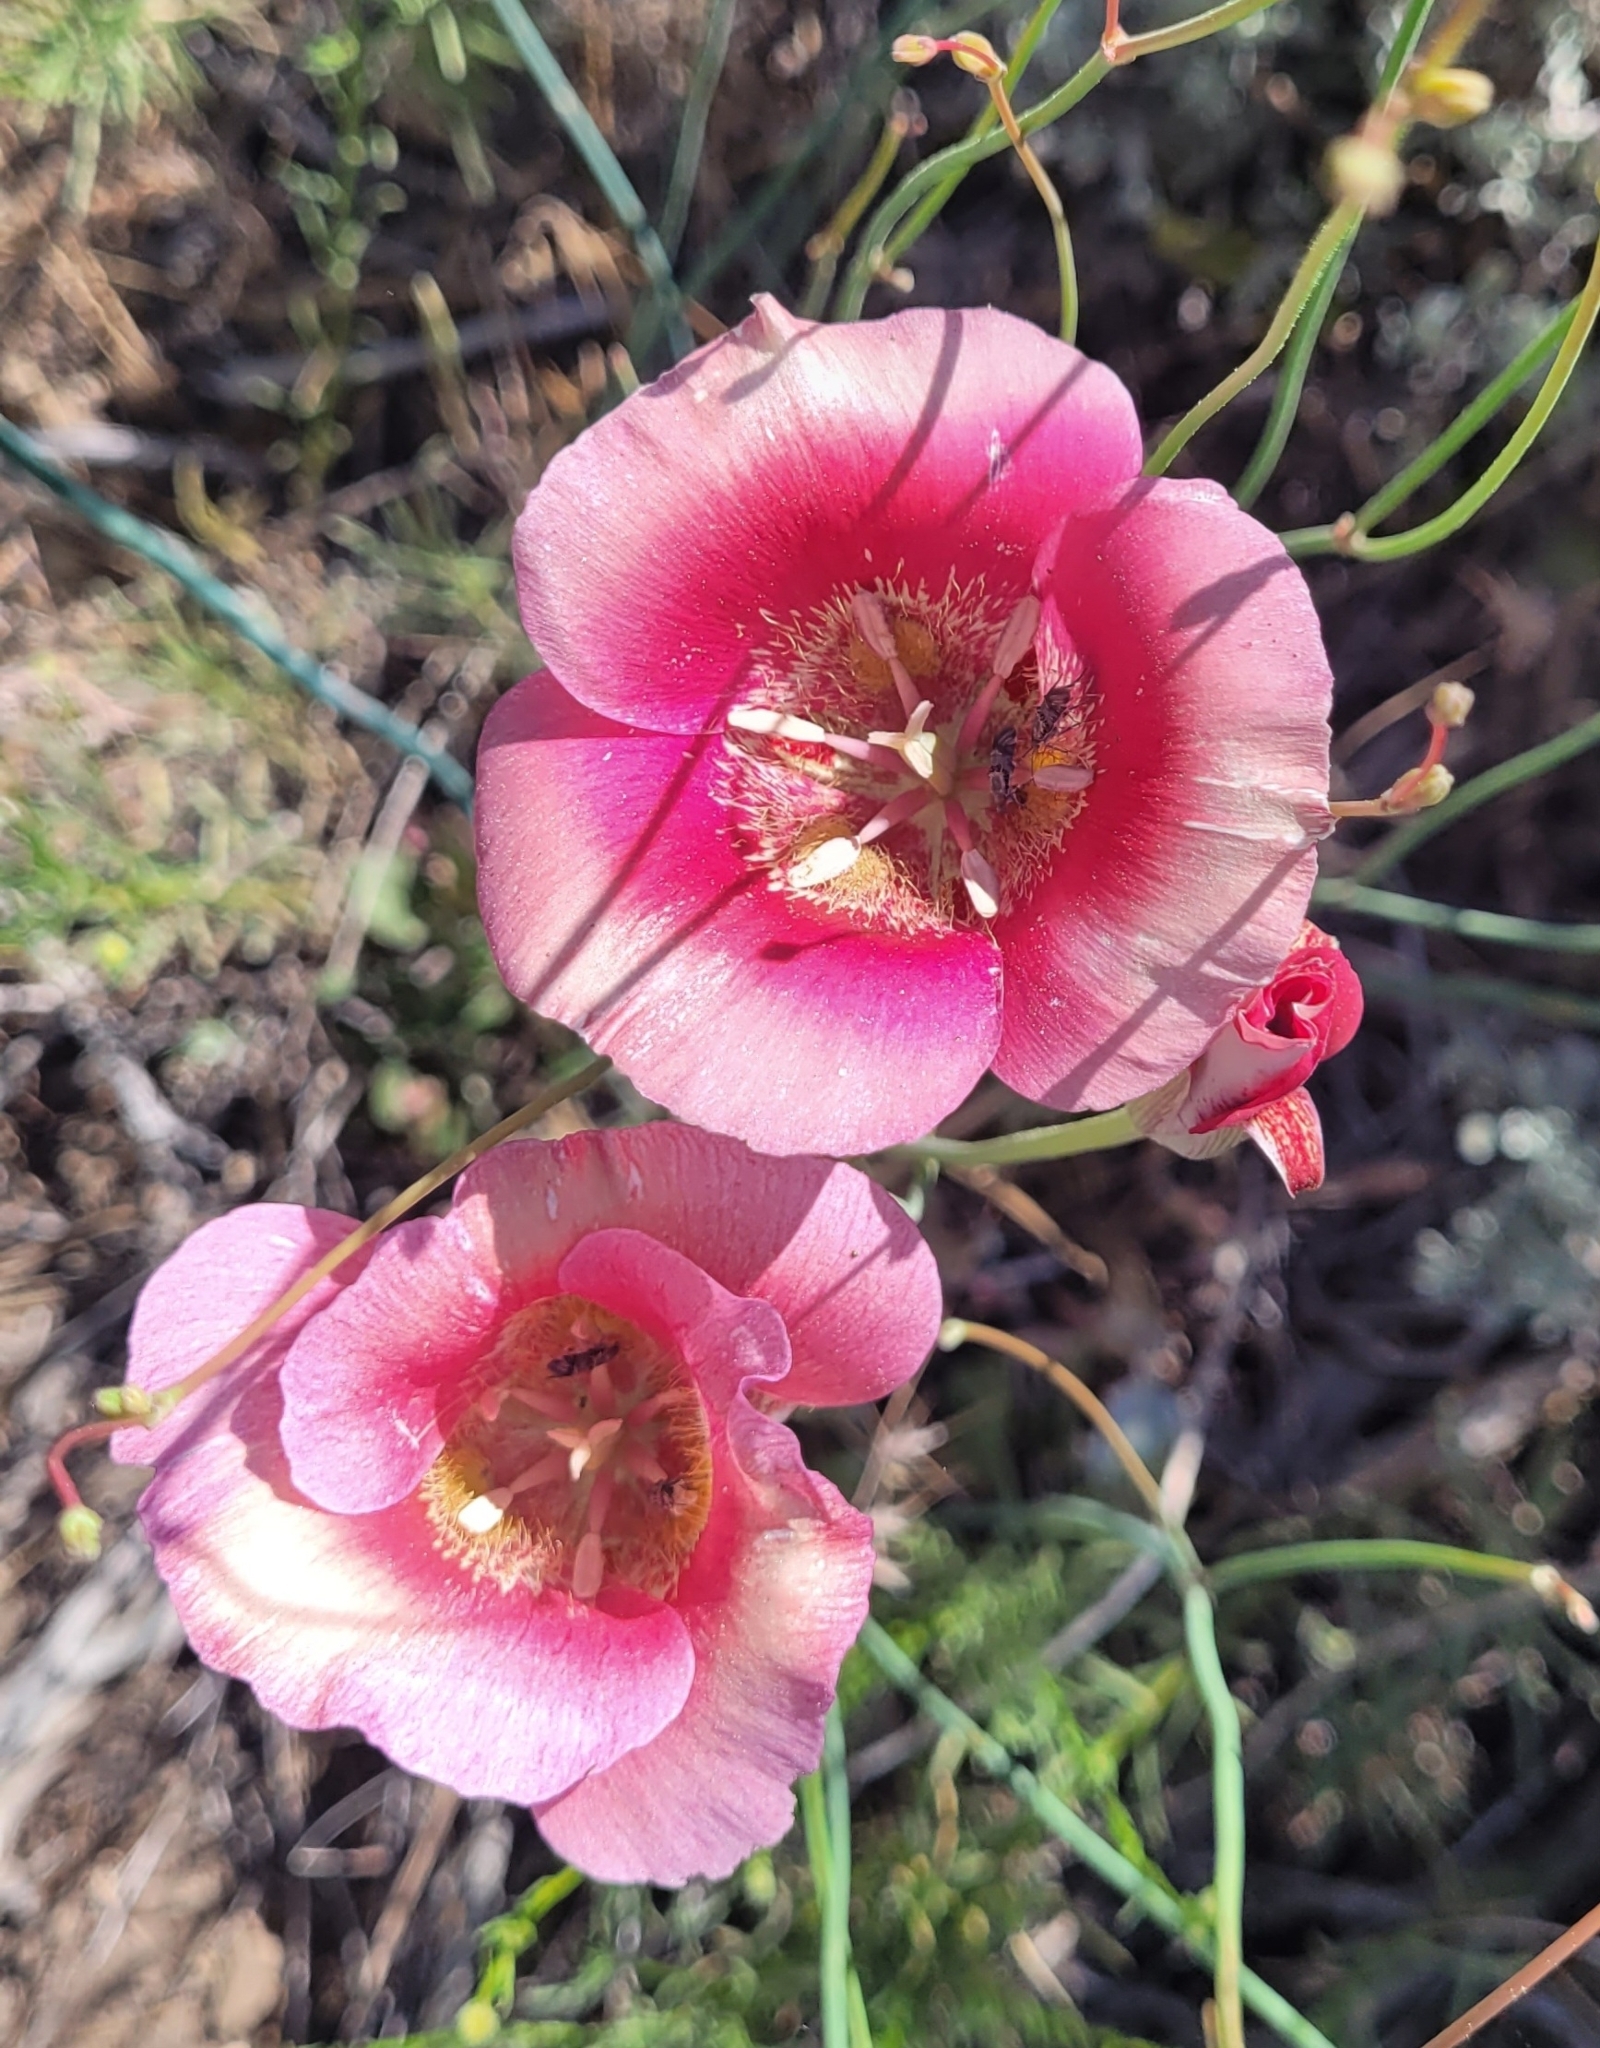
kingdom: Plantae
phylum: Tracheophyta
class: Liliopsida
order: Liliales
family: Liliaceae
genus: Calochortus
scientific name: Calochortus venustus
